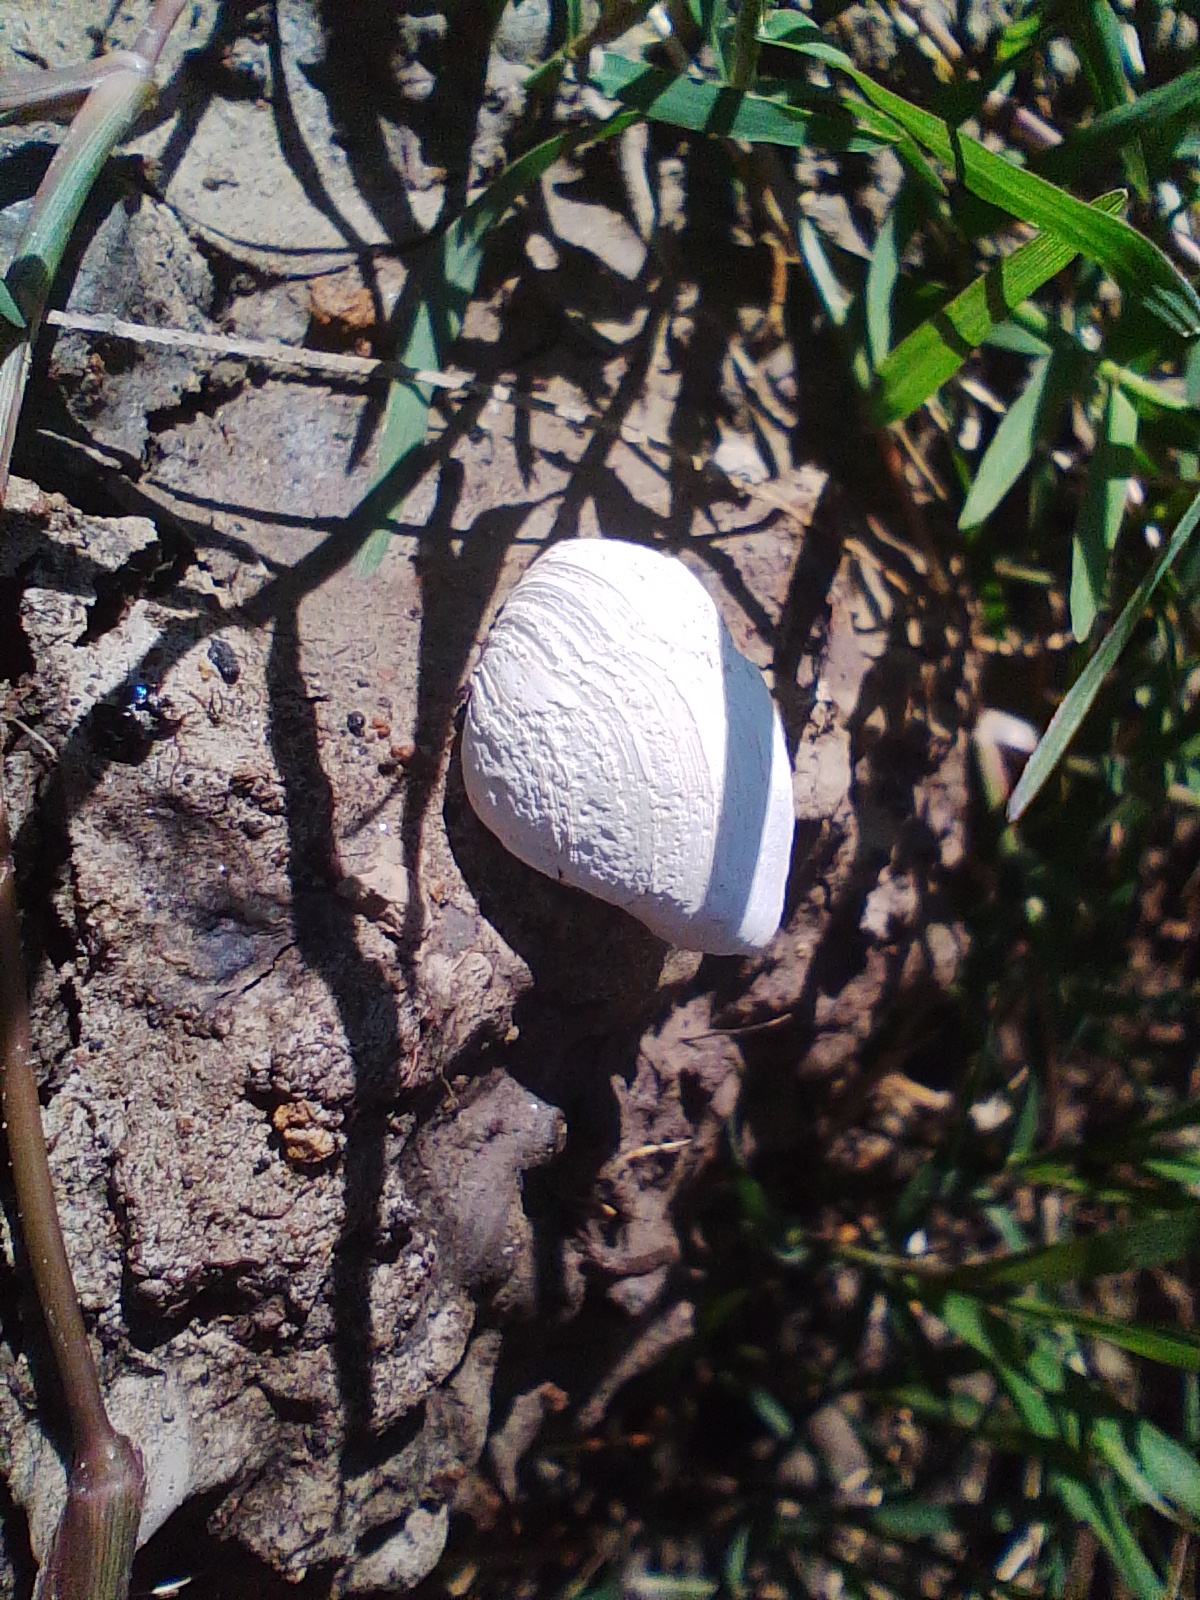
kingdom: Animalia
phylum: Mollusca
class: Bivalvia
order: Myida
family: Corbulidae
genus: Erodona
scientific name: Erodona mactroides
